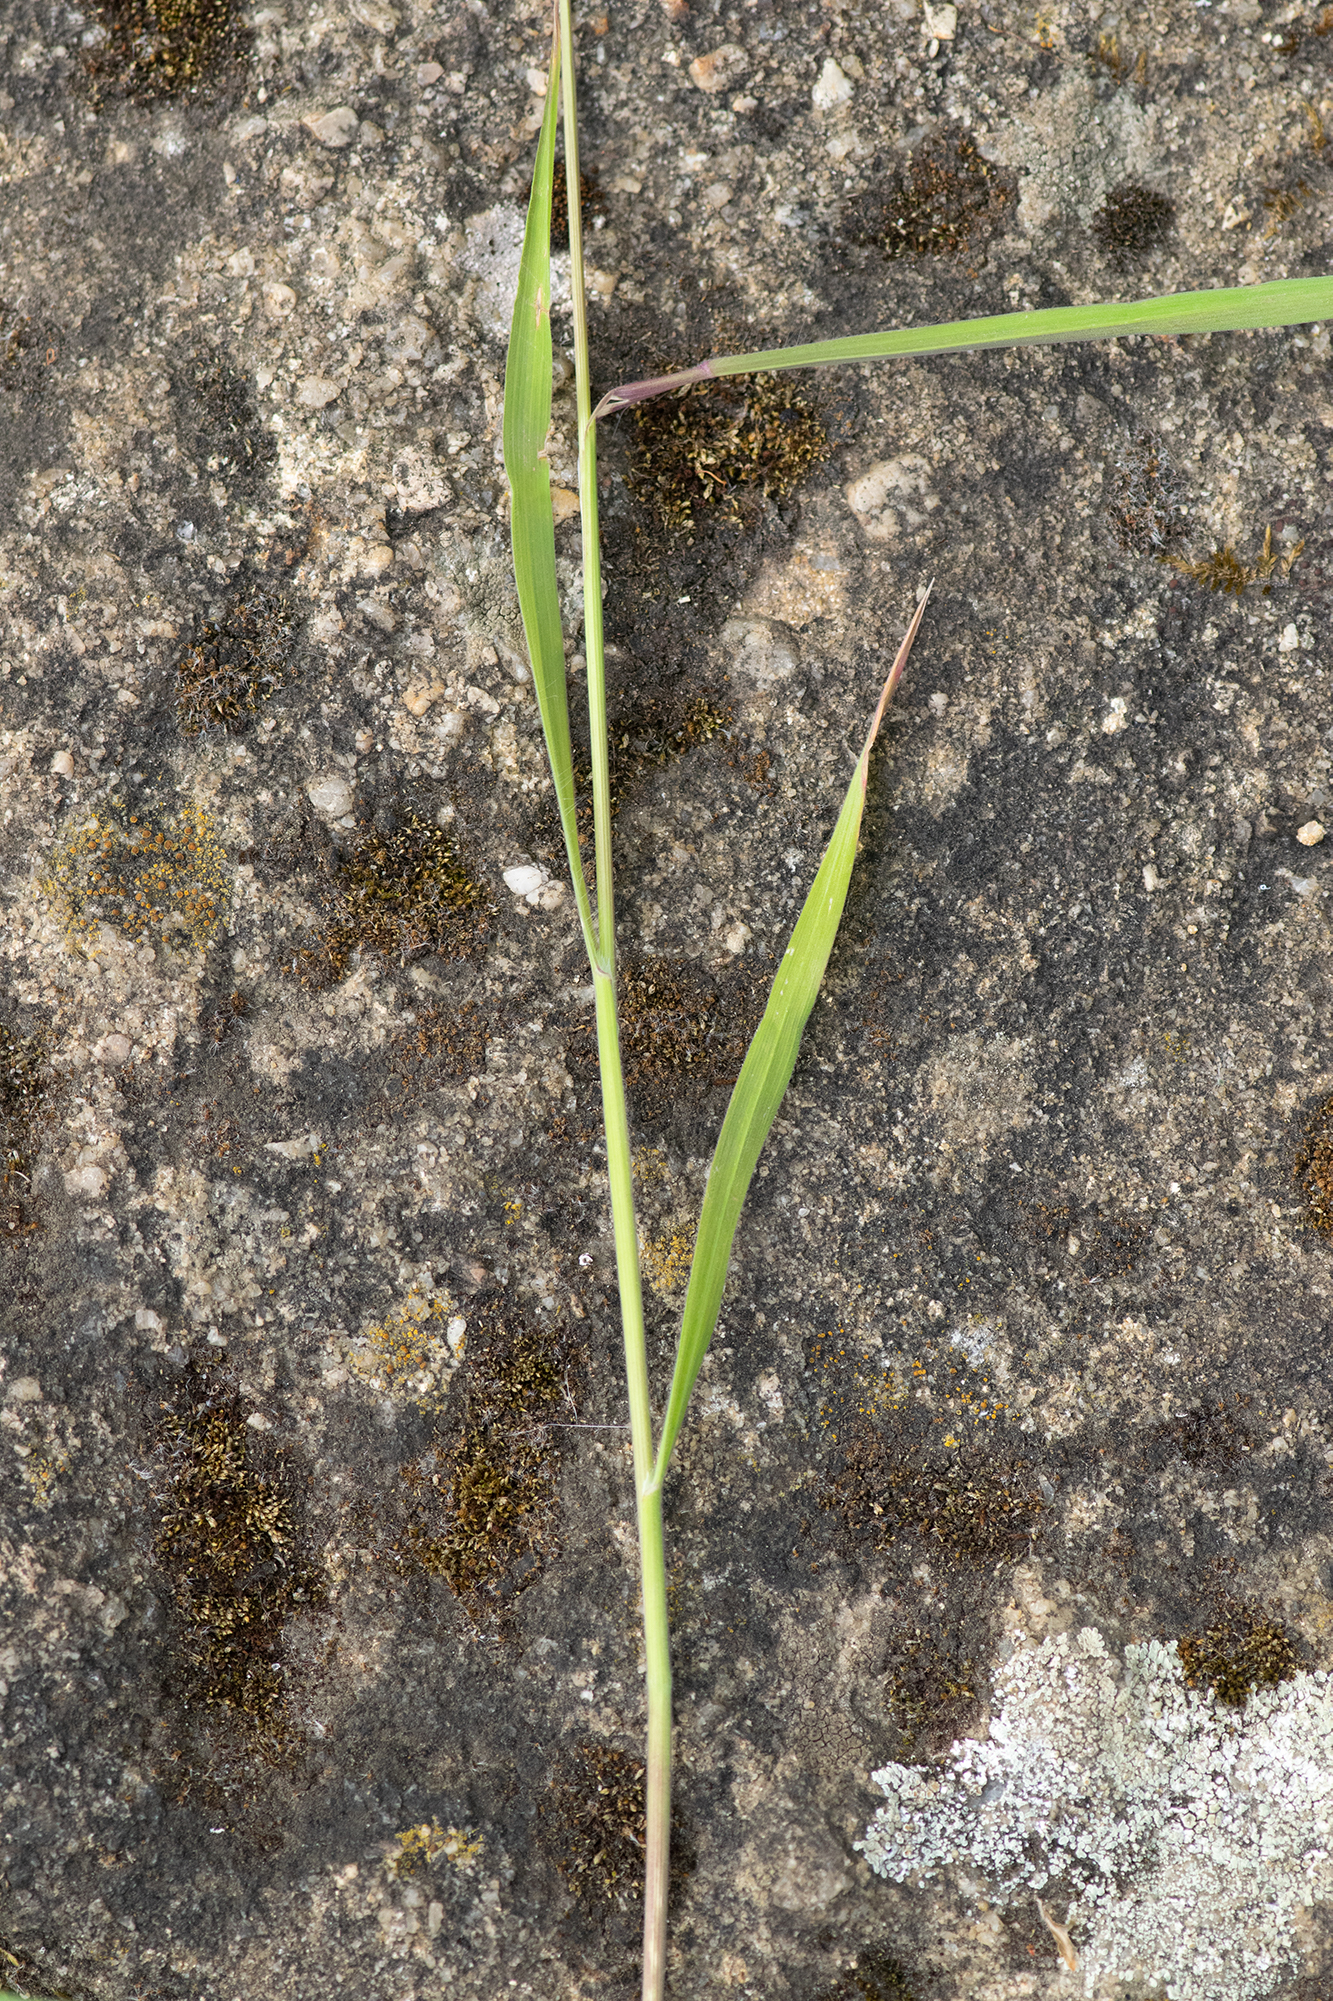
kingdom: Plantae
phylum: Tracheophyta
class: Liliopsida
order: Poales
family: Poaceae
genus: Bromus
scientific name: Bromus sterilis
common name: Poverty brome
